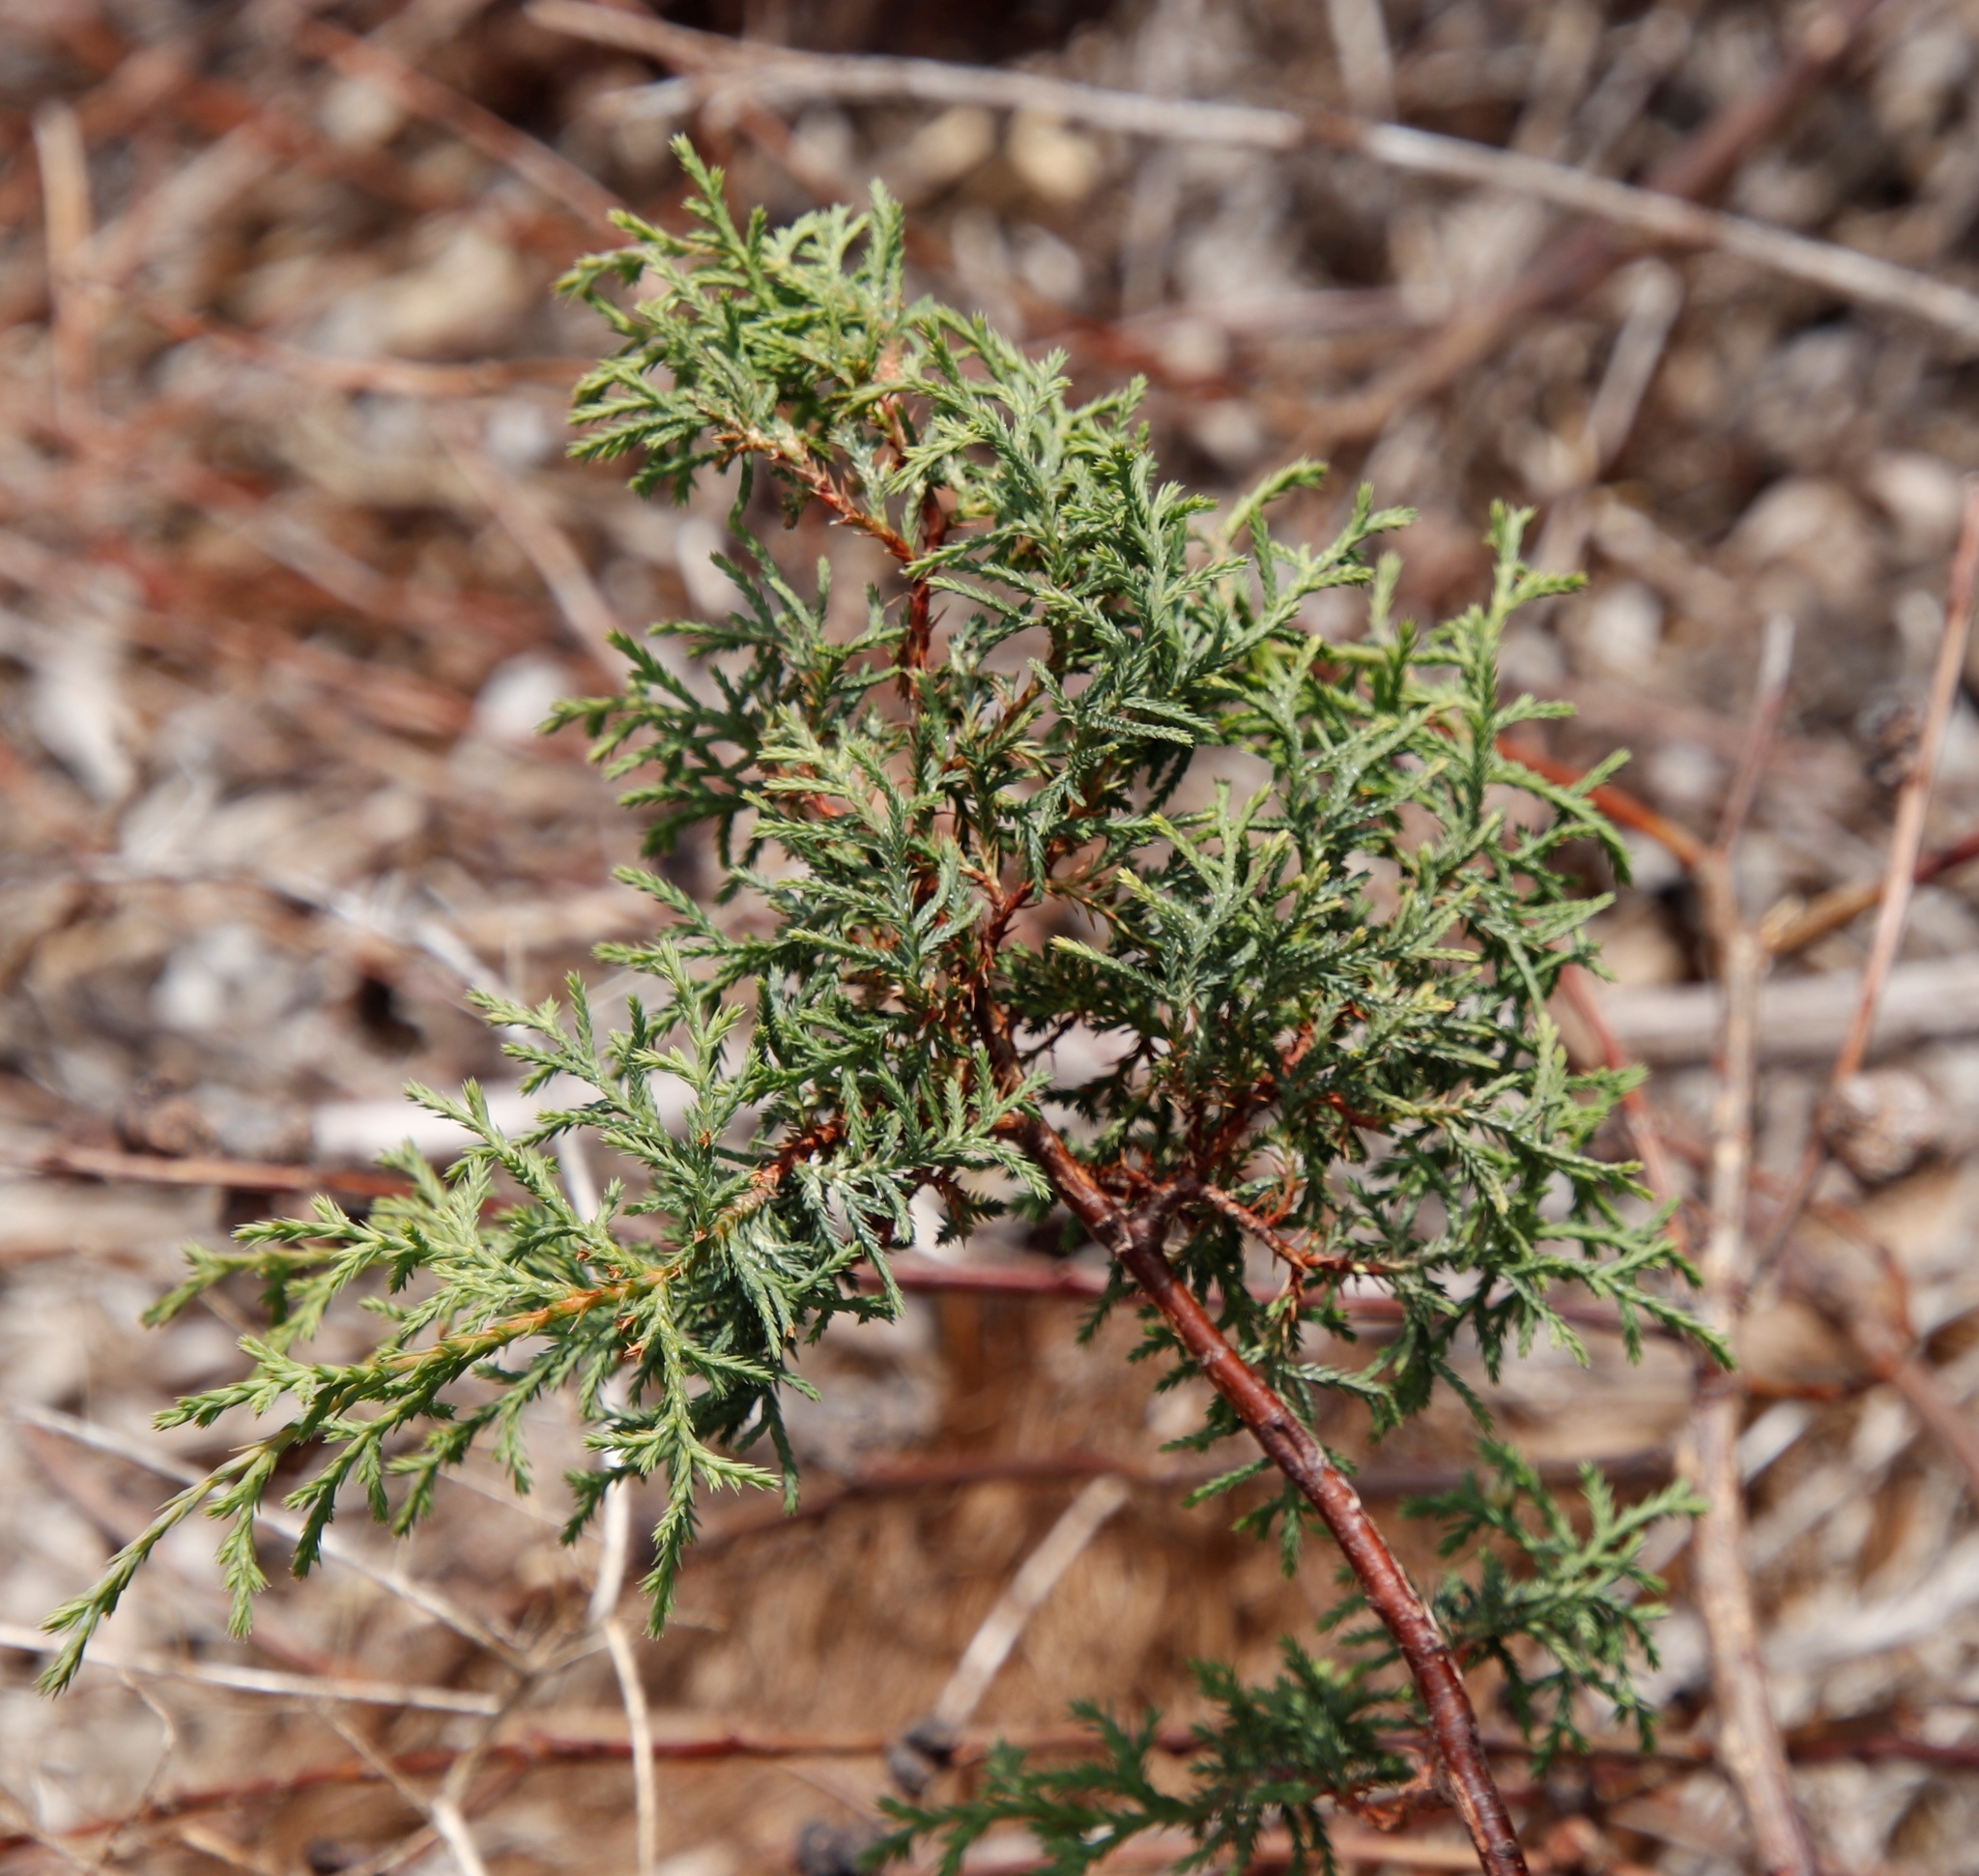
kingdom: Plantae
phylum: Tracheophyta
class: Pinopsida
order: Pinales
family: Cupressaceae
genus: Cupressus
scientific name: Cupressus lusitanica
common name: Mexican cypress
